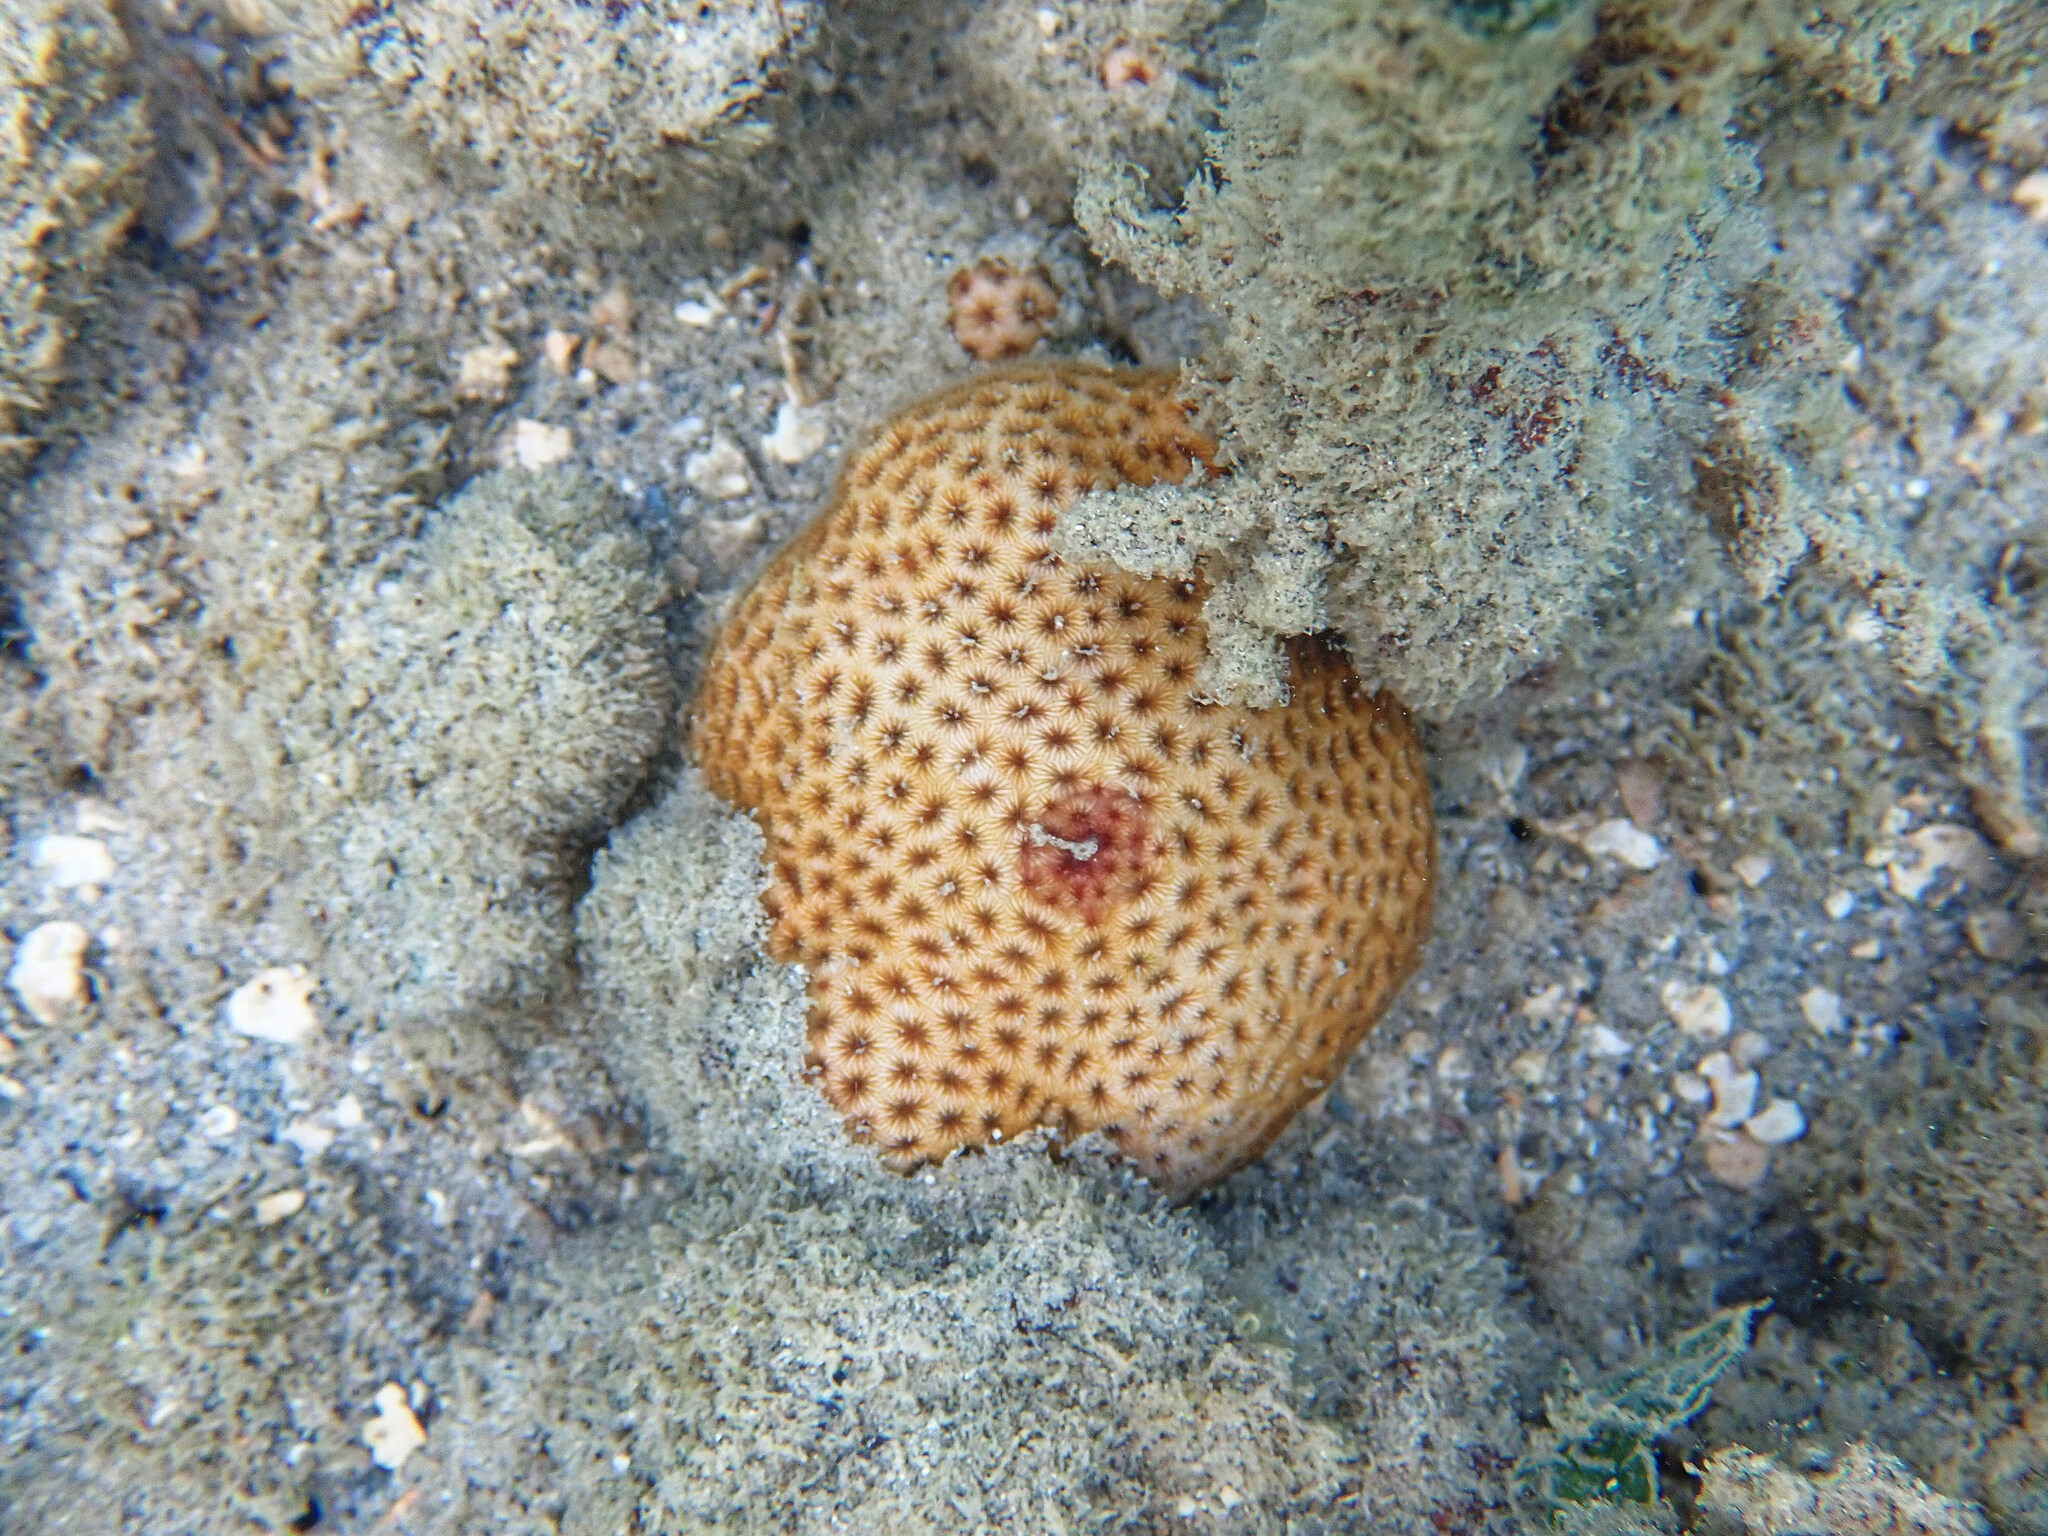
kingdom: Animalia
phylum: Cnidaria
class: Anthozoa
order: Scleractinia
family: Rhizangiidae
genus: Siderastrea
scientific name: Siderastrea radians
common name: Lesser starlet coral
